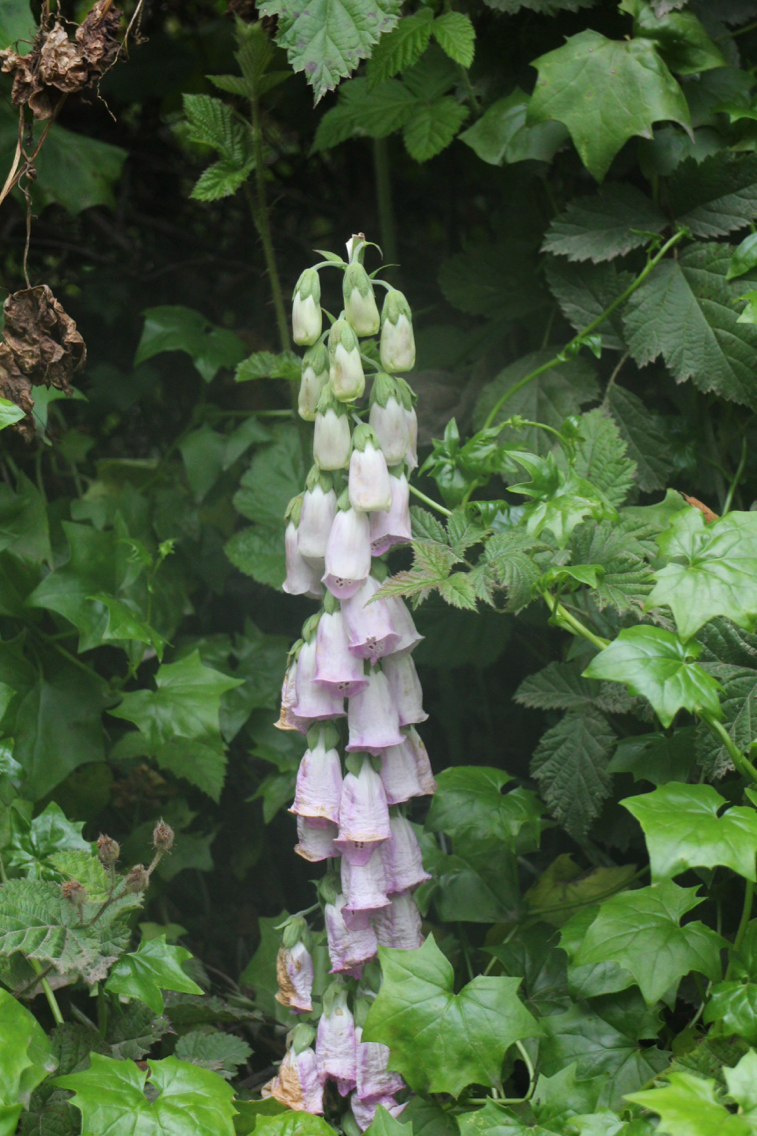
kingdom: Plantae
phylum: Tracheophyta
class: Magnoliopsida
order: Lamiales
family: Plantaginaceae
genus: Digitalis
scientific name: Digitalis purpurea
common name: Foxglove
